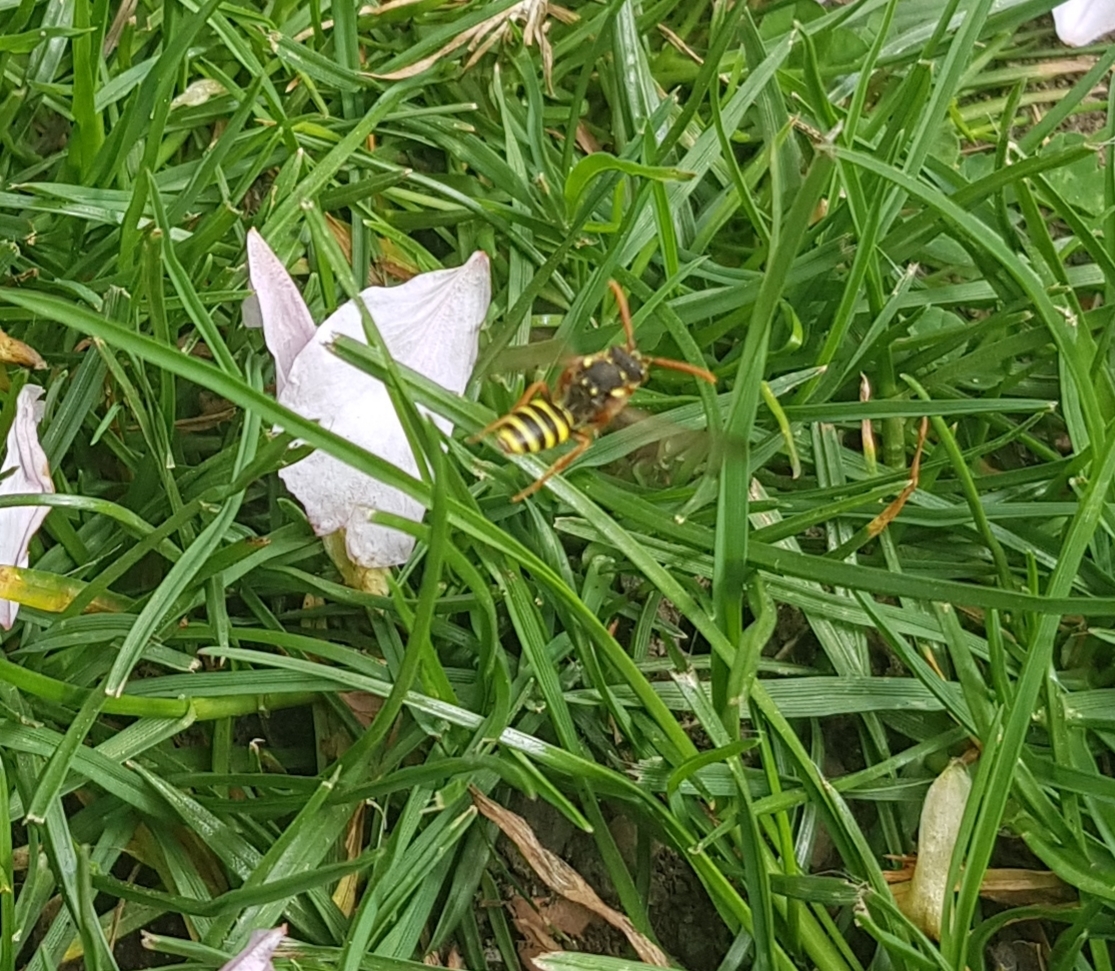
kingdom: Animalia
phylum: Arthropoda
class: Insecta
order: Hymenoptera
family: Apidae
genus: Nomada
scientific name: Nomada goodeniana
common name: Gooden's nomad bee
